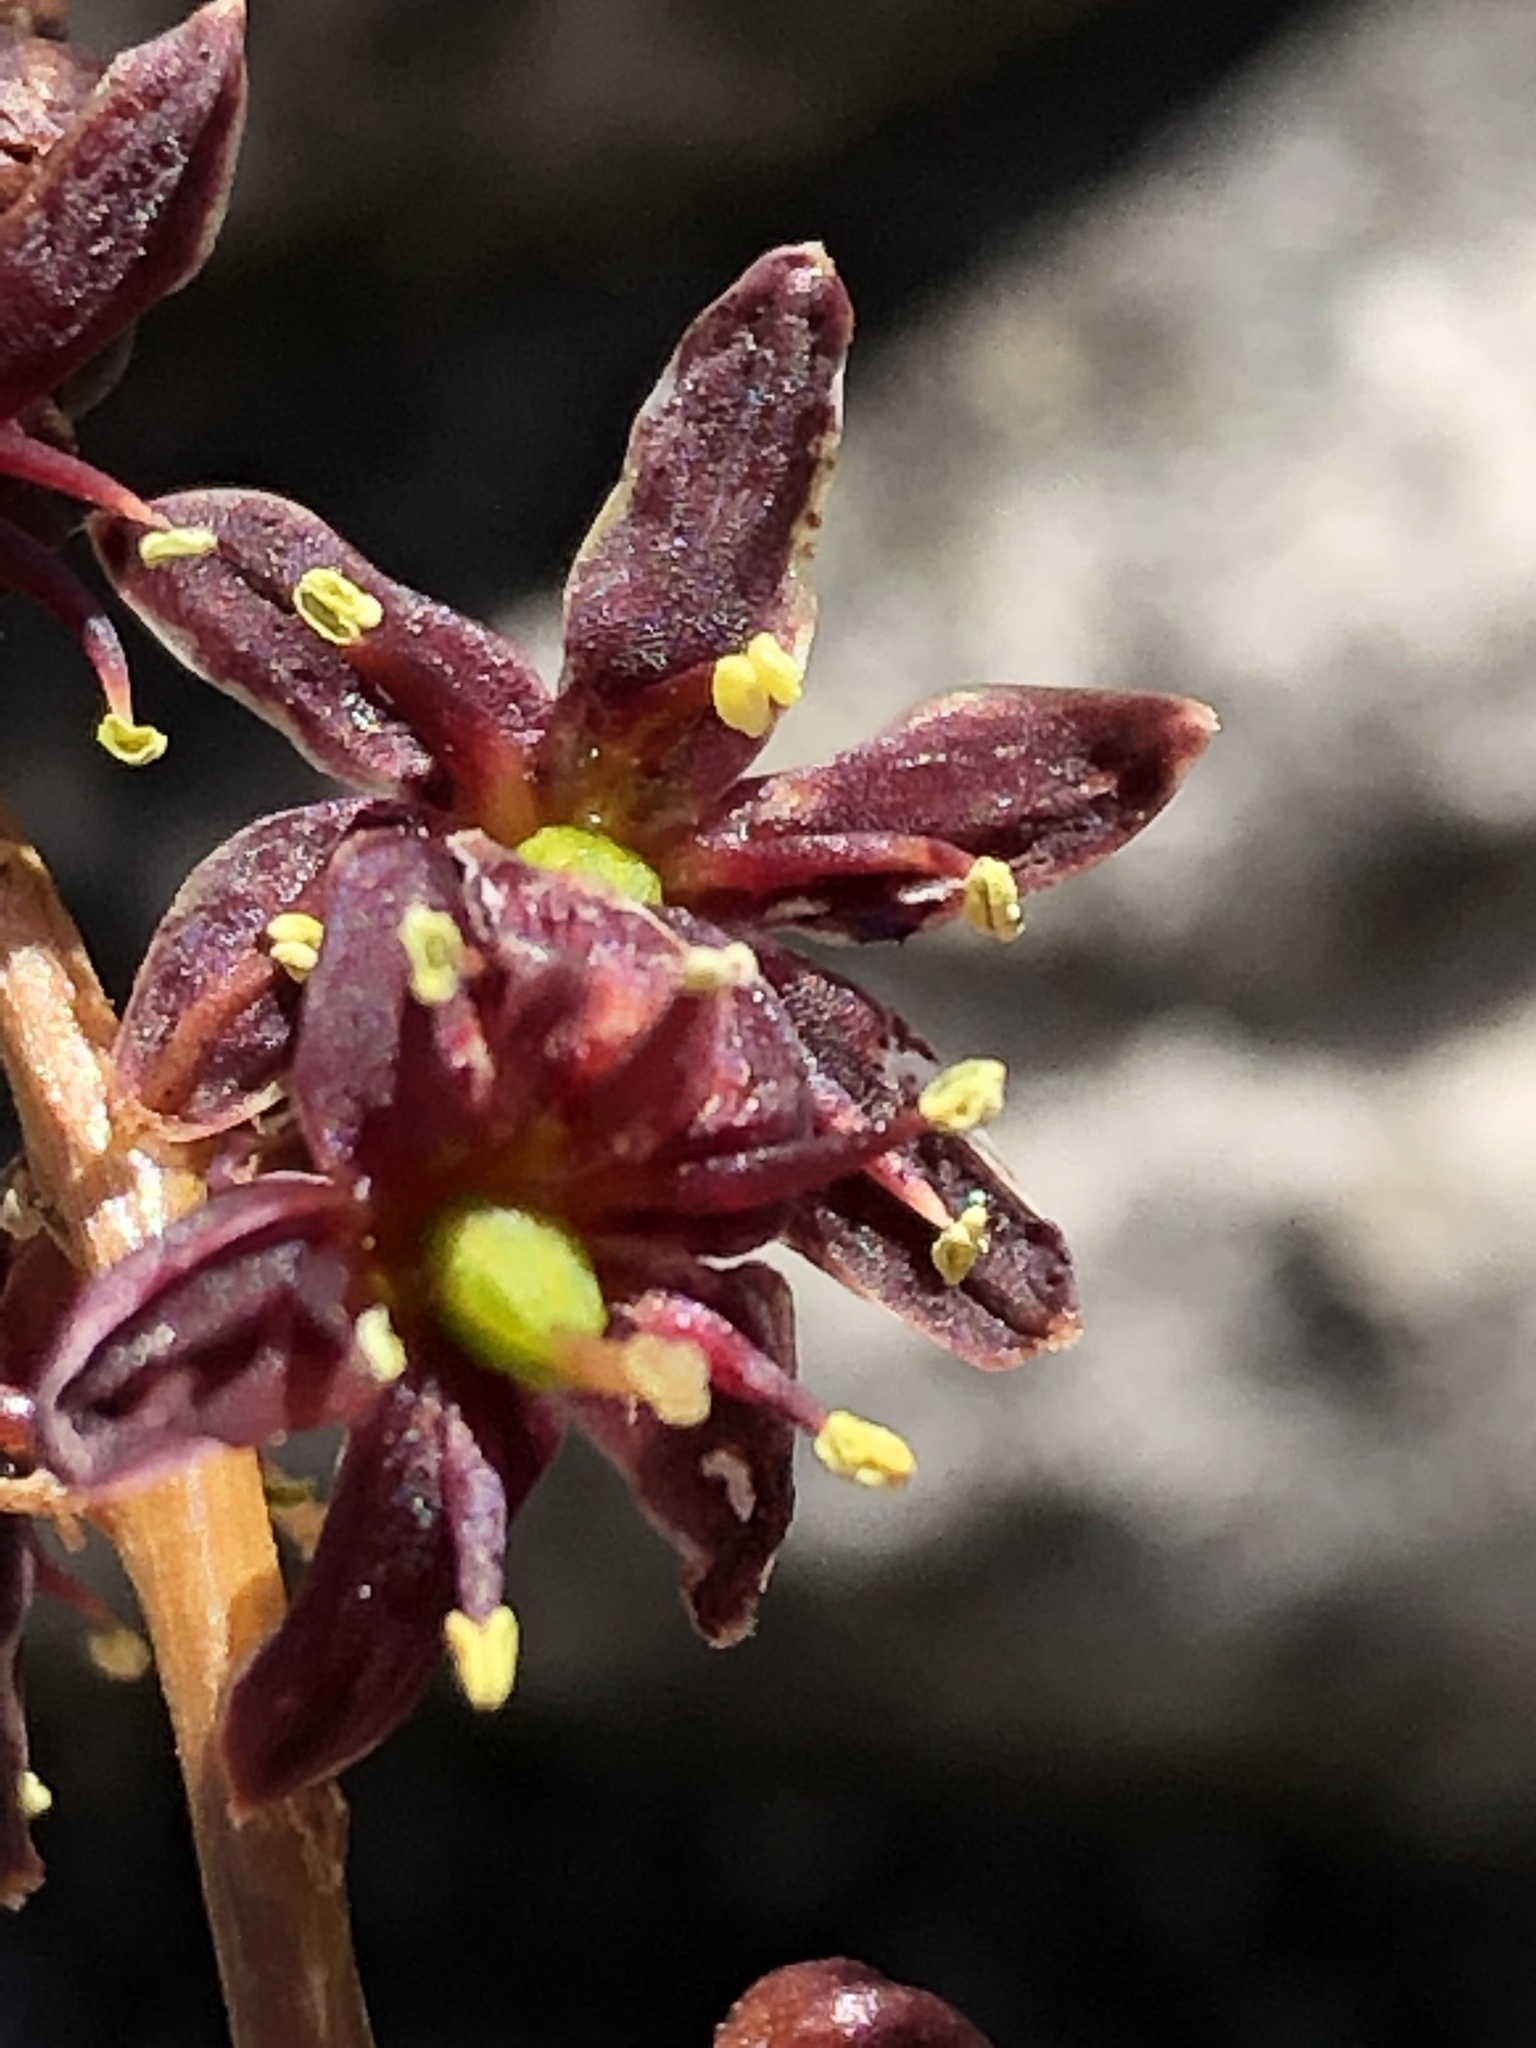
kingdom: Plantae
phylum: Tracheophyta
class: Liliopsida
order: Asparagales
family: Asparagaceae
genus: Drimia
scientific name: Drimia salteri
